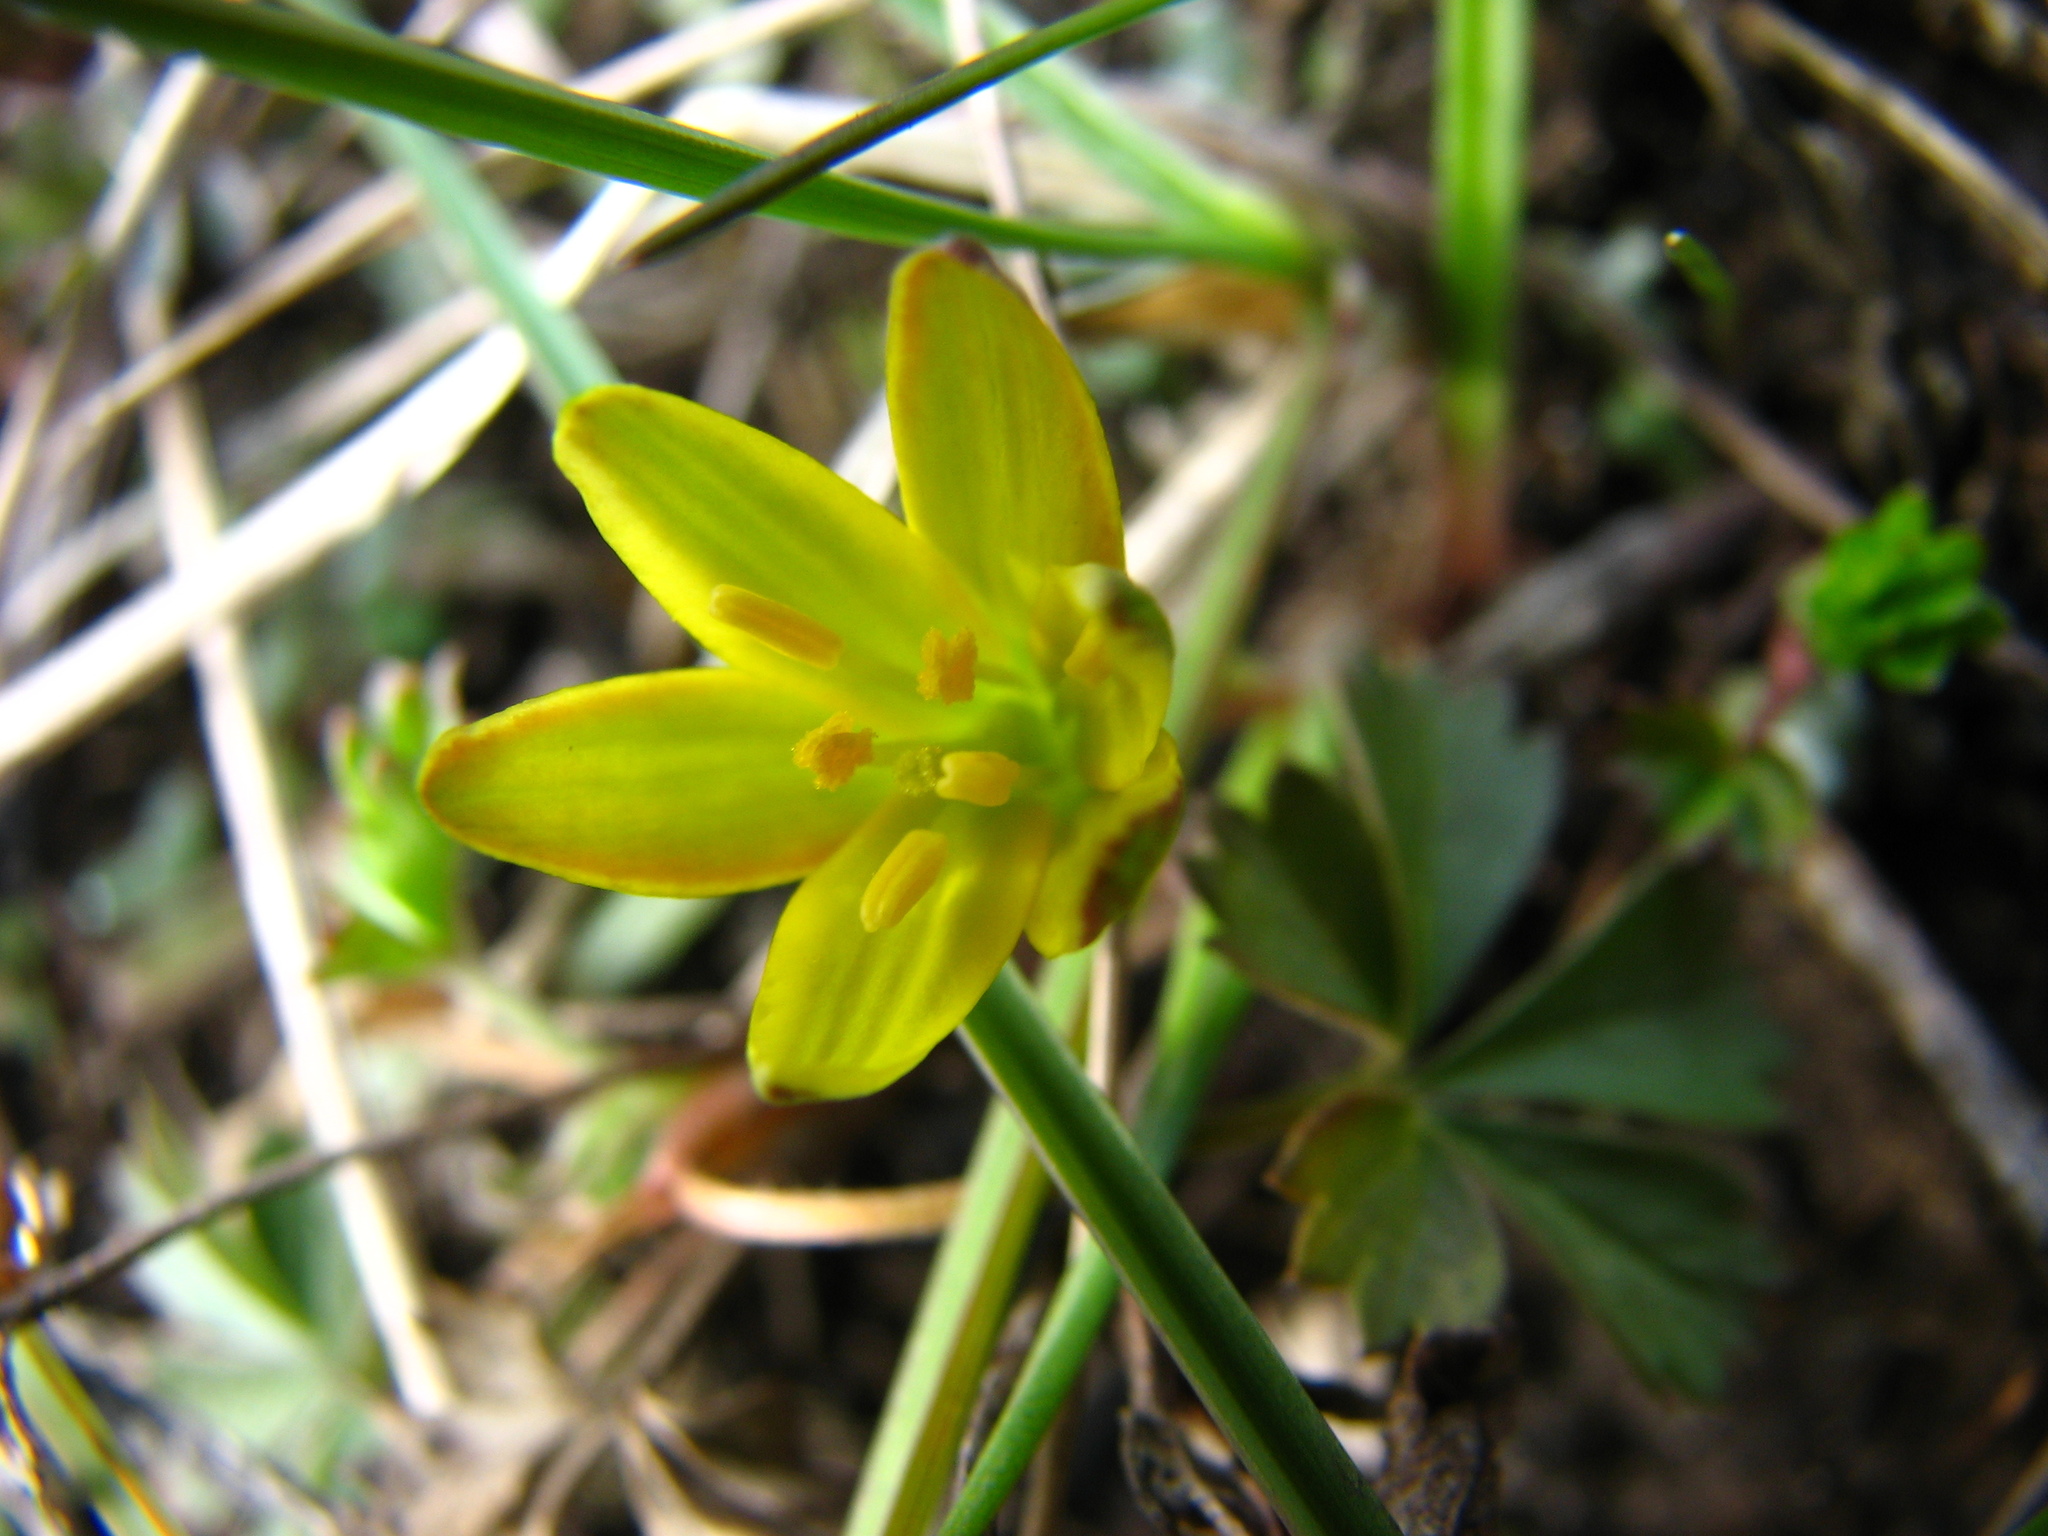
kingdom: Plantae
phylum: Tracheophyta
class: Liliopsida
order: Liliales
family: Liliaceae
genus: Gagea
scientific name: Gagea pusilla
